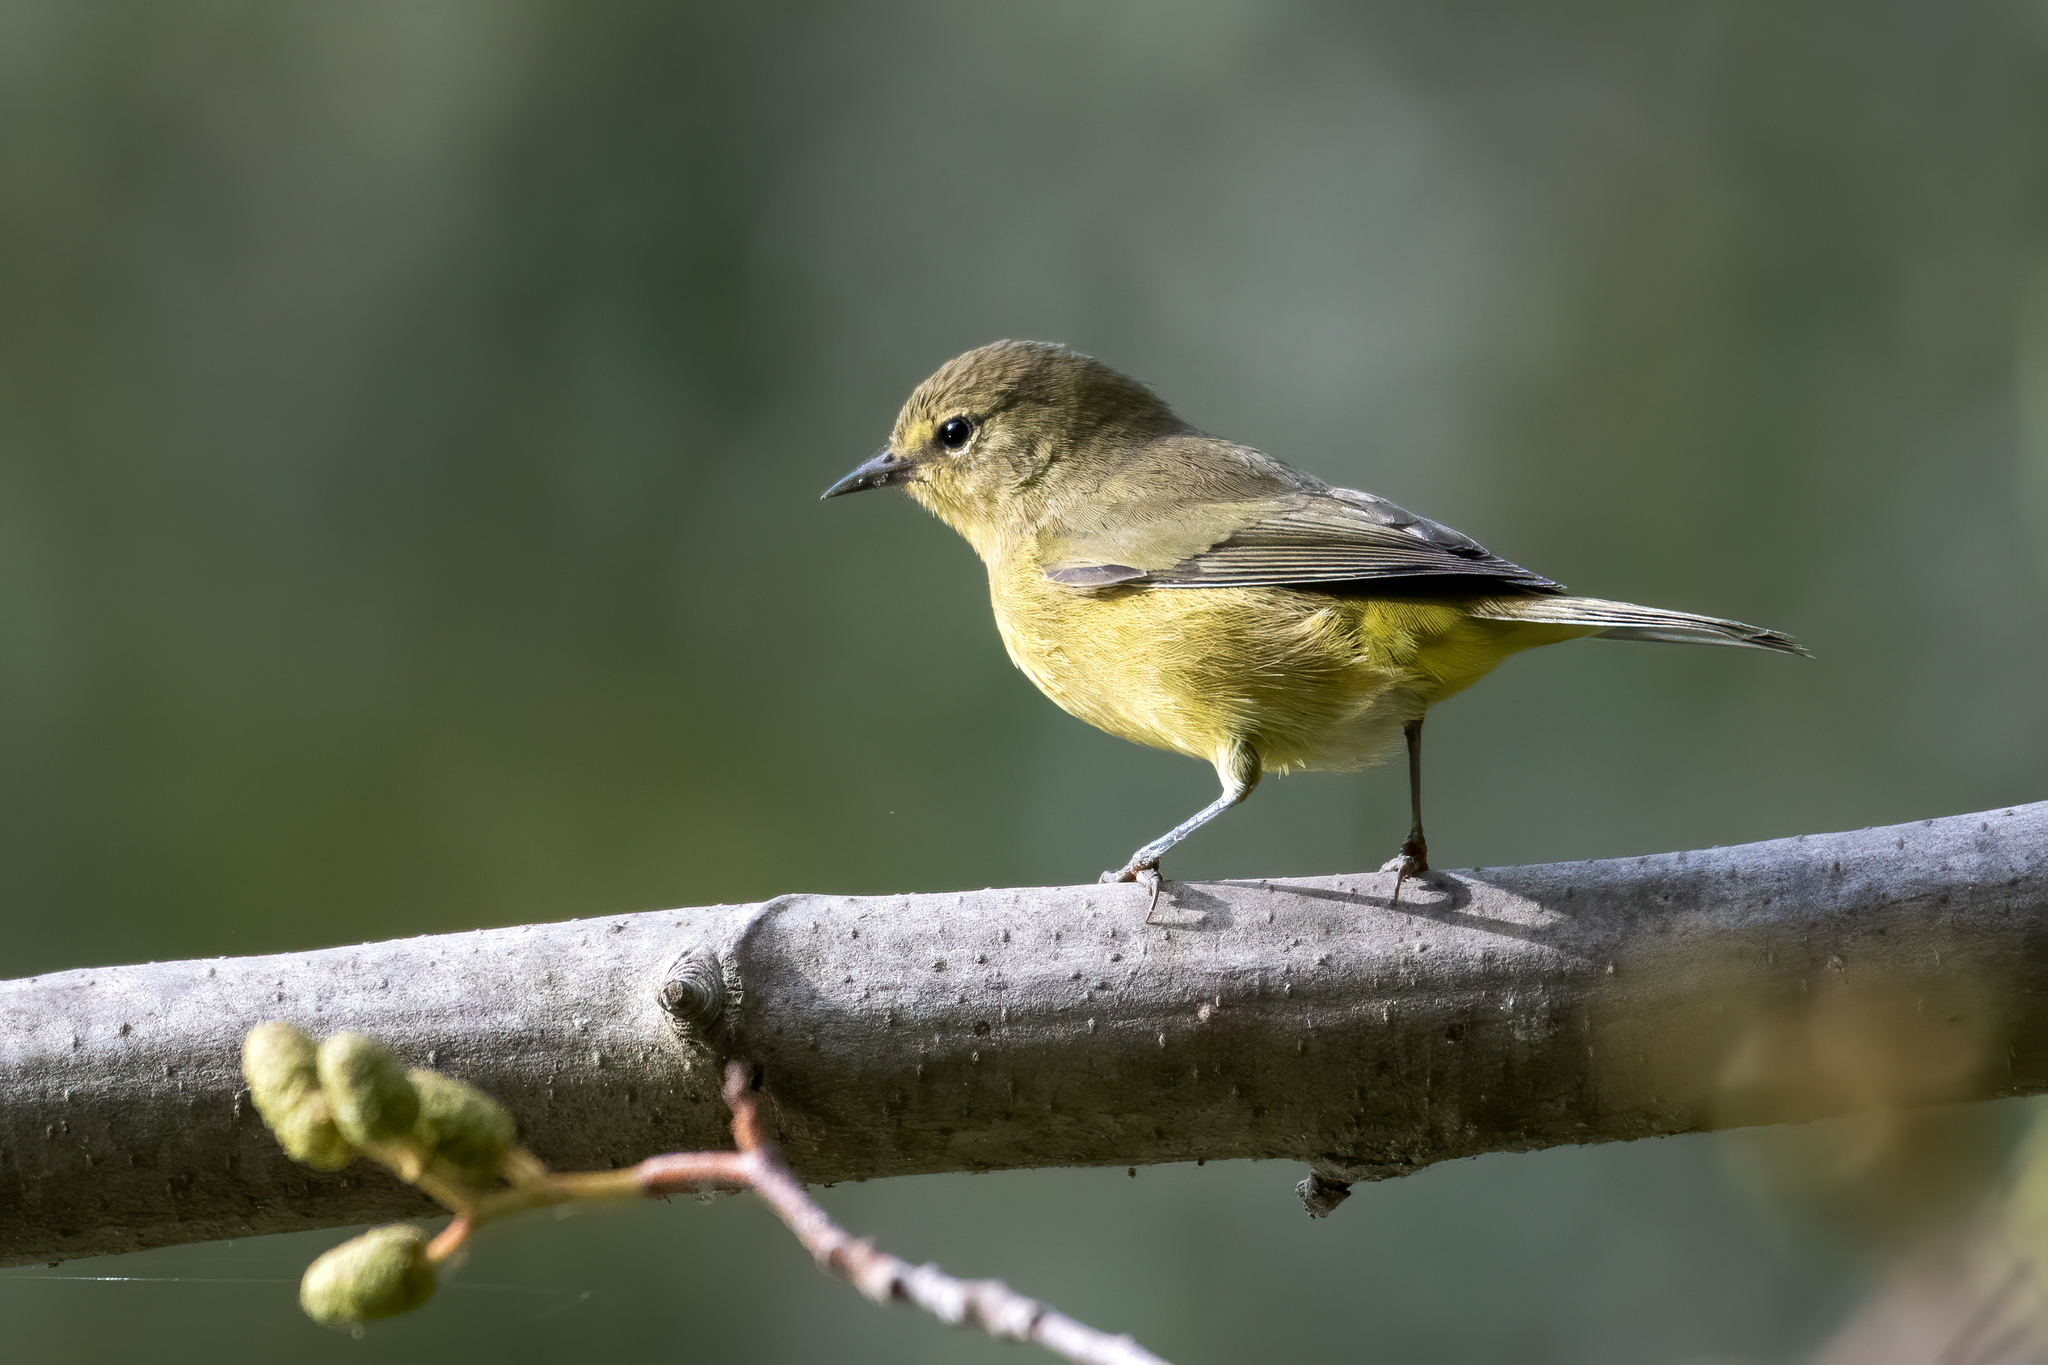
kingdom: Animalia
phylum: Chordata
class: Aves
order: Passeriformes
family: Parulidae
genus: Leiothlypis
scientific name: Leiothlypis celata
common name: Orange-crowned warbler
